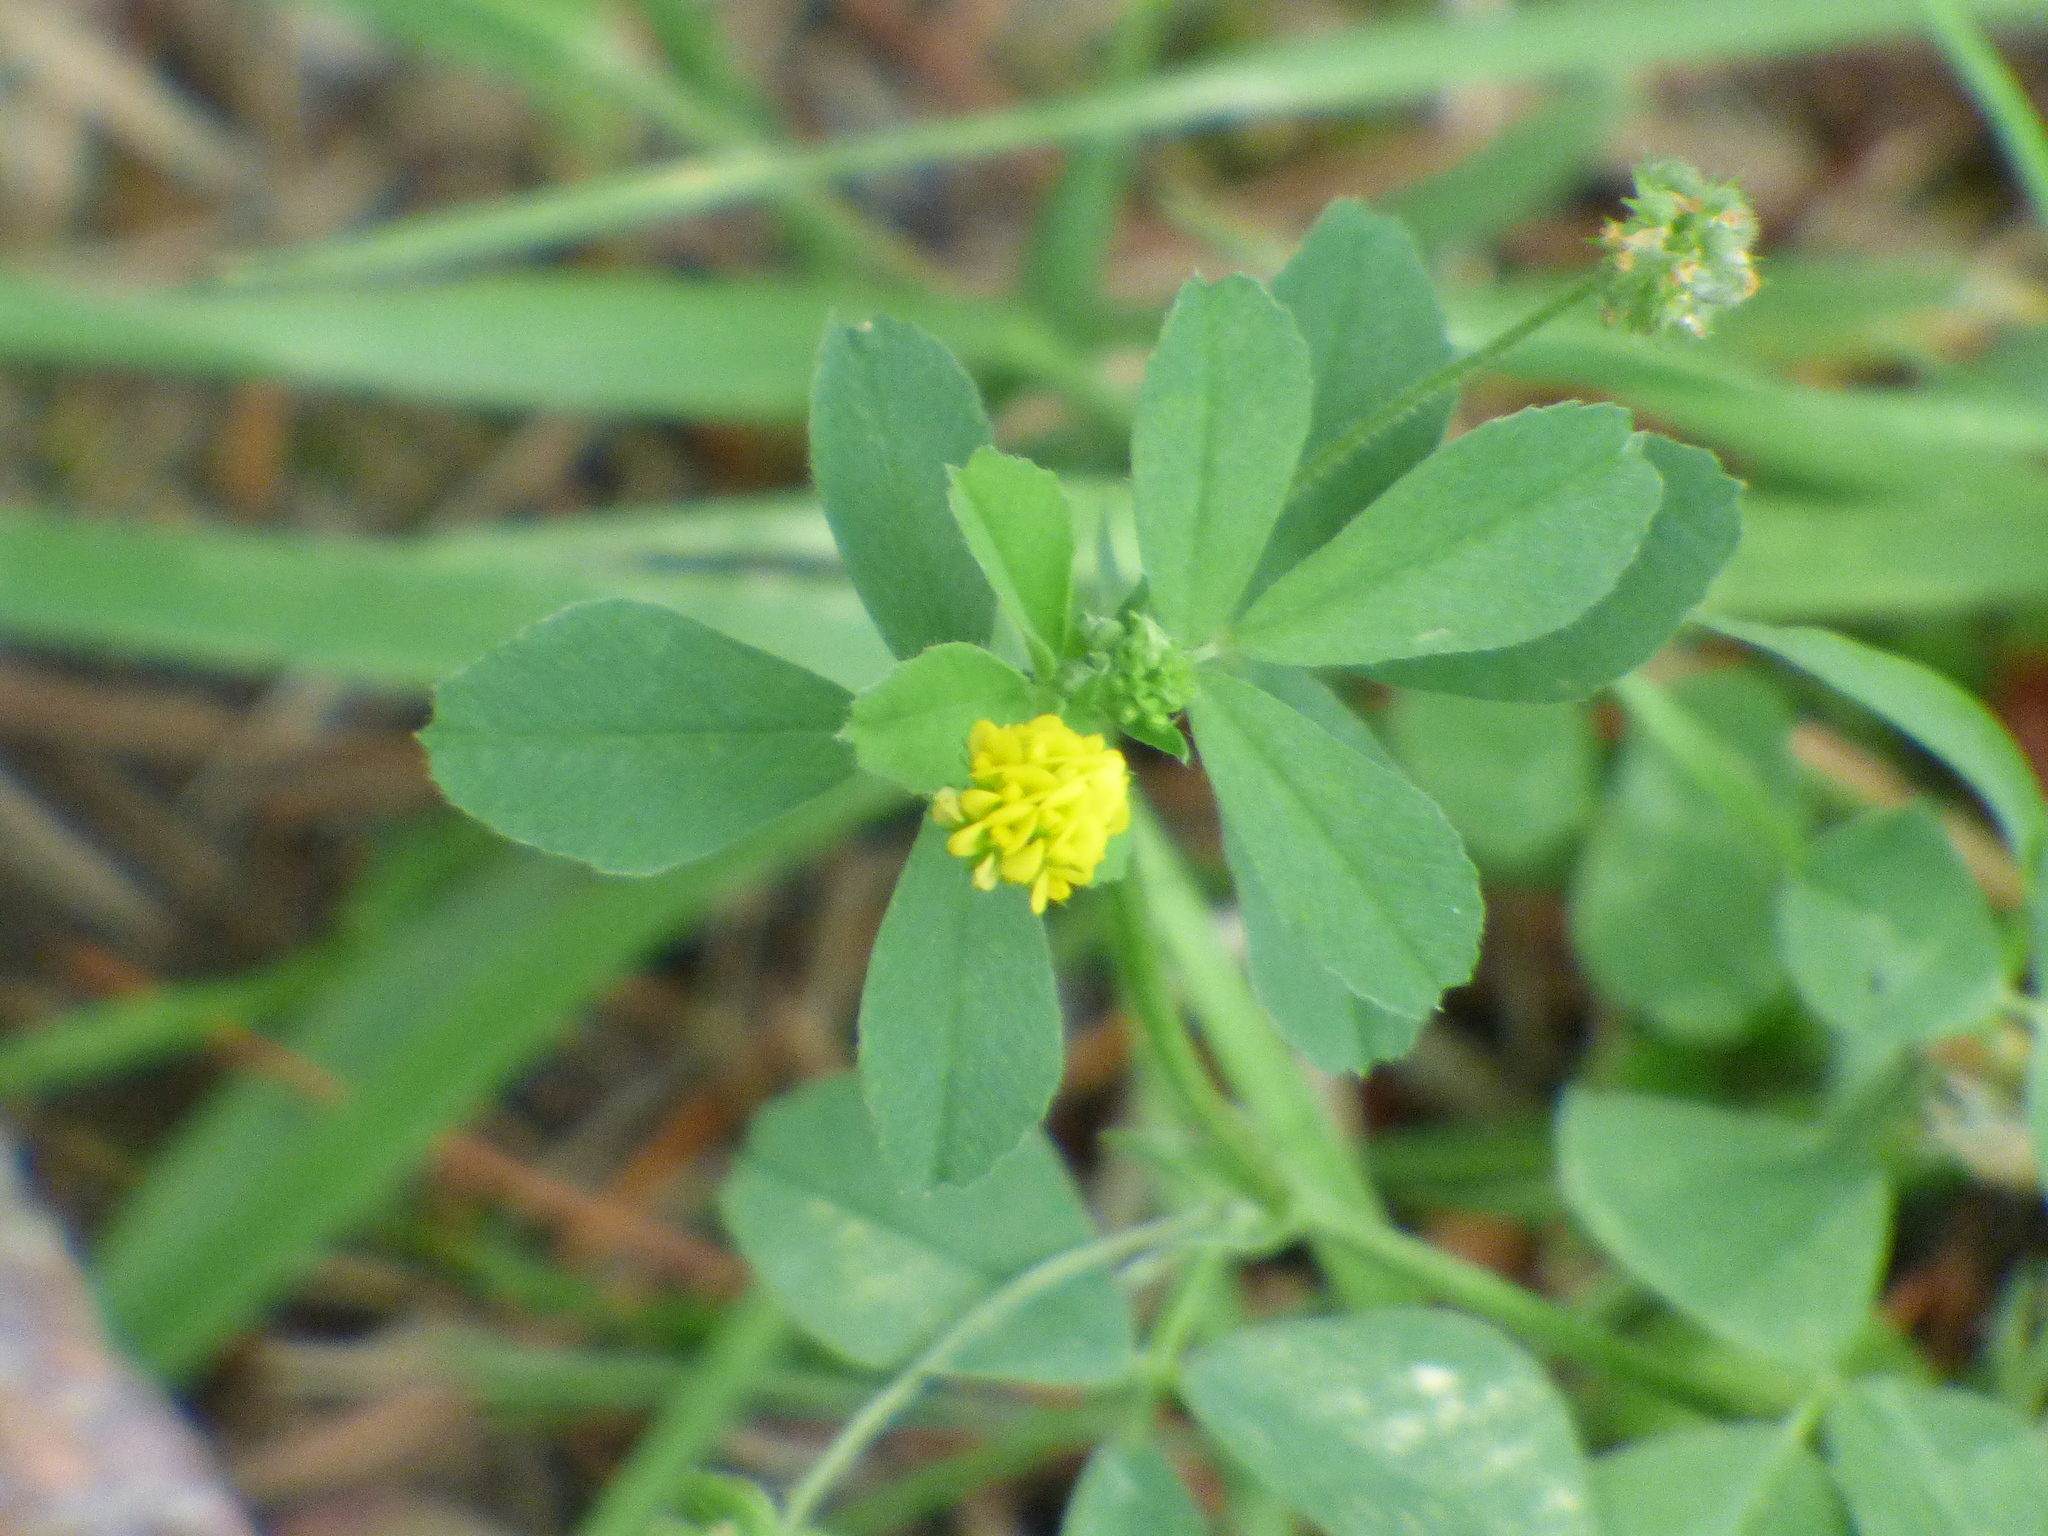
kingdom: Plantae
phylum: Tracheophyta
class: Magnoliopsida
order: Fabales
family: Fabaceae
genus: Medicago
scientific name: Medicago lupulina
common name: Black medick
